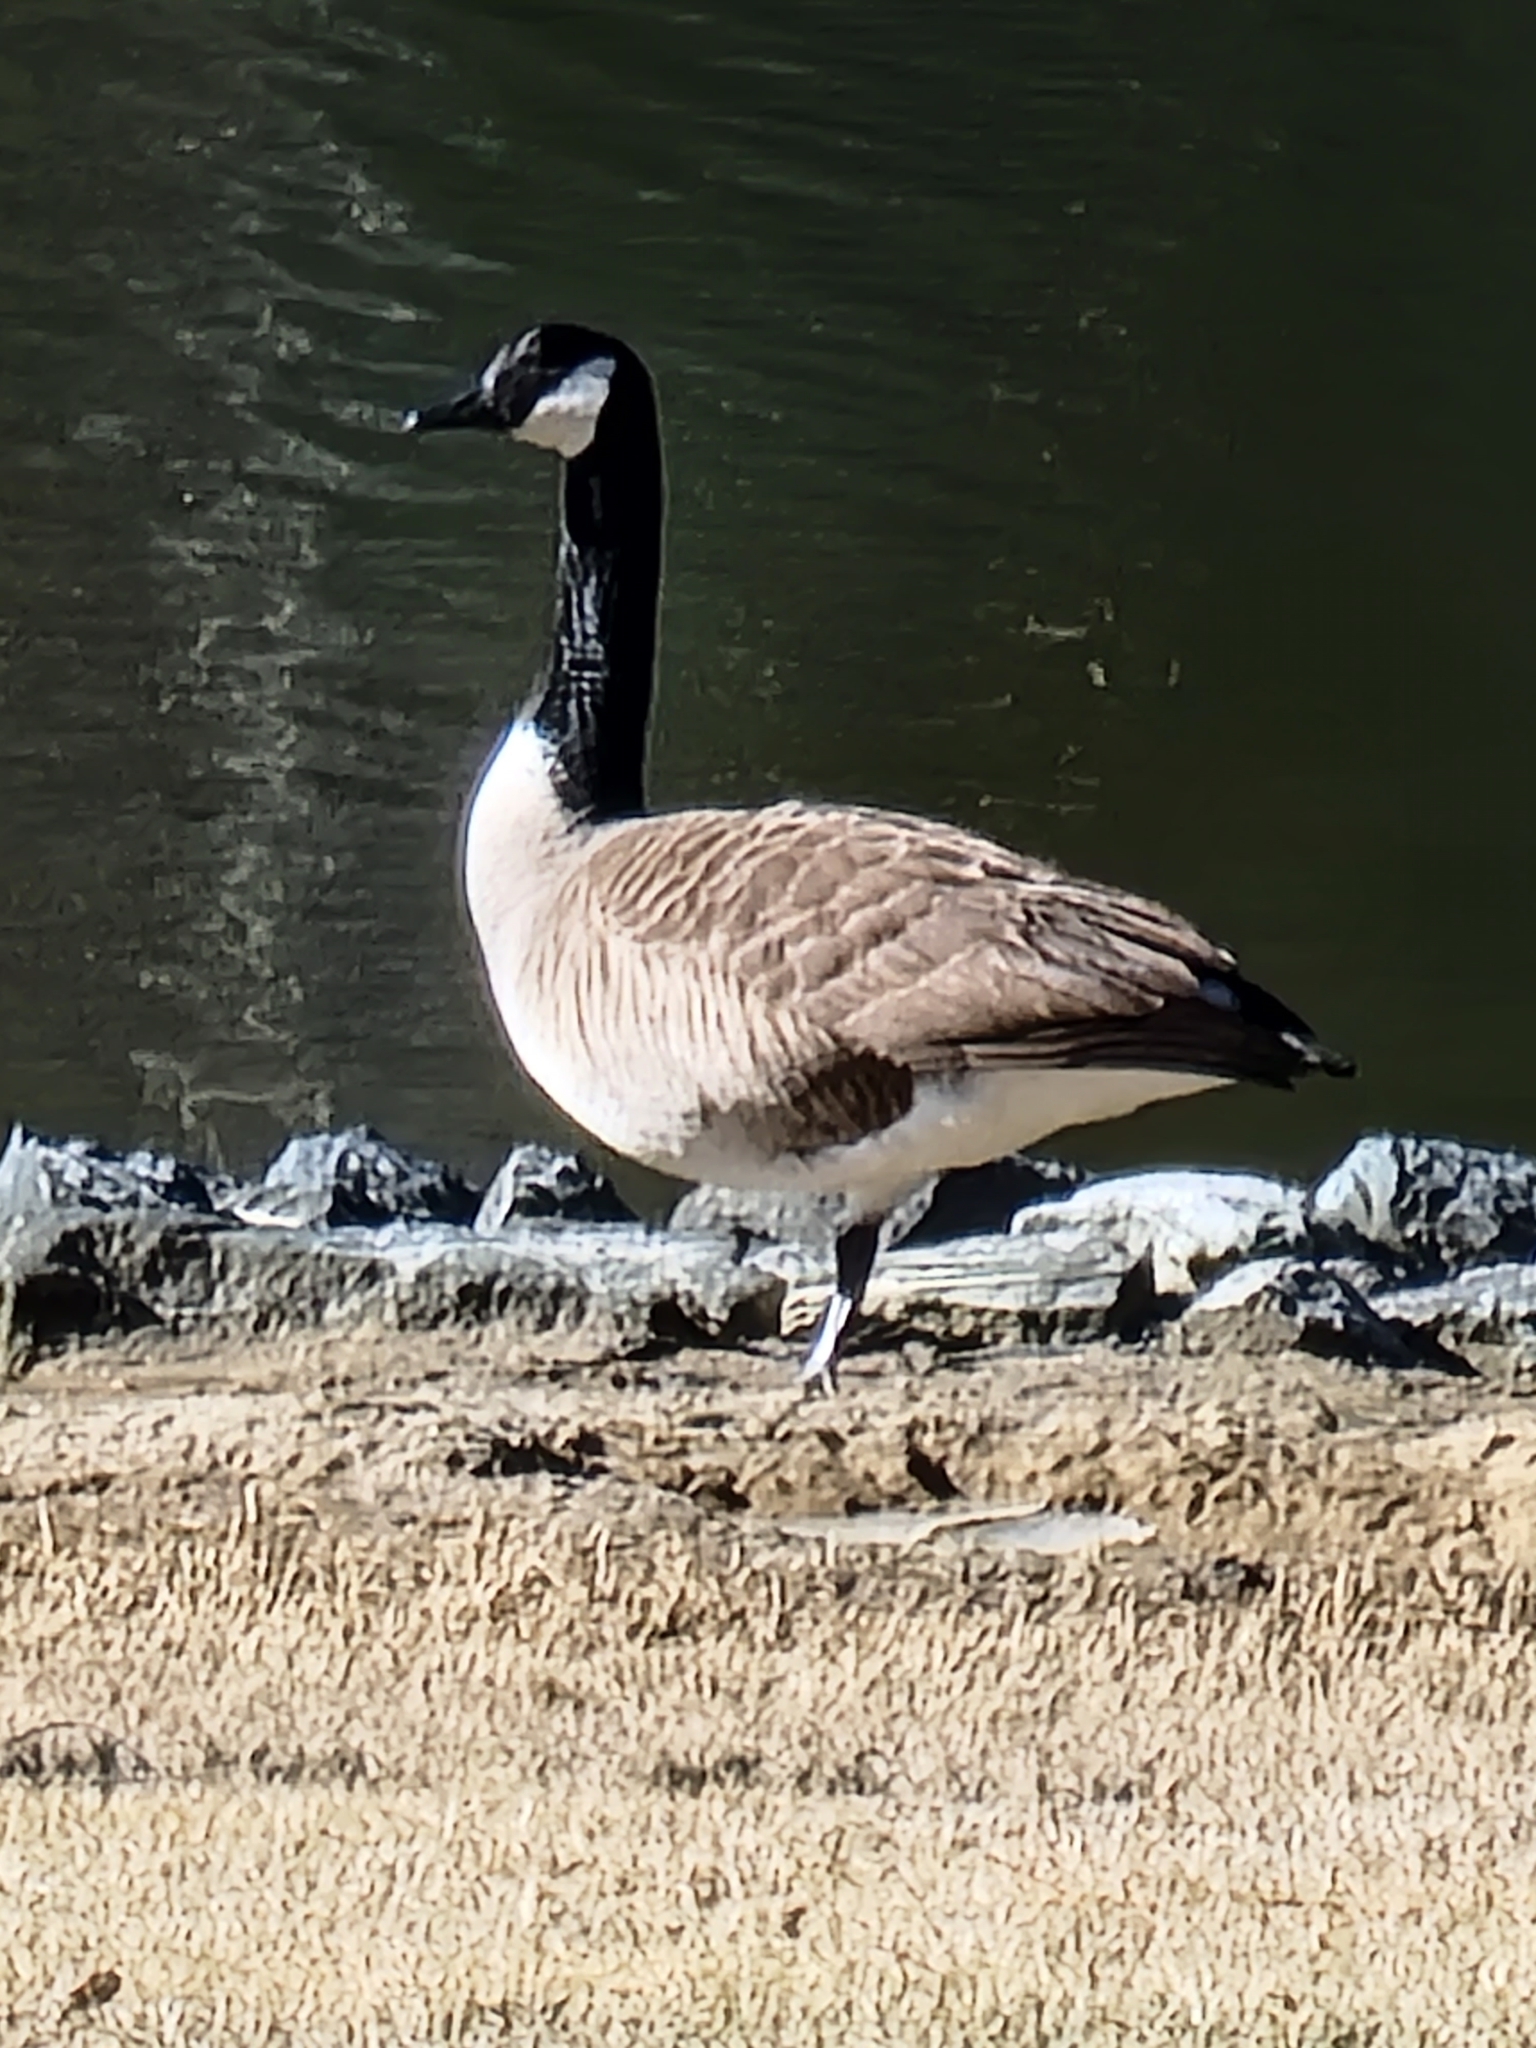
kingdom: Animalia
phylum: Chordata
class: Aves
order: Anseriformes
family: Anatidae
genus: Branta
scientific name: Branta canadensis
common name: Canada goose
